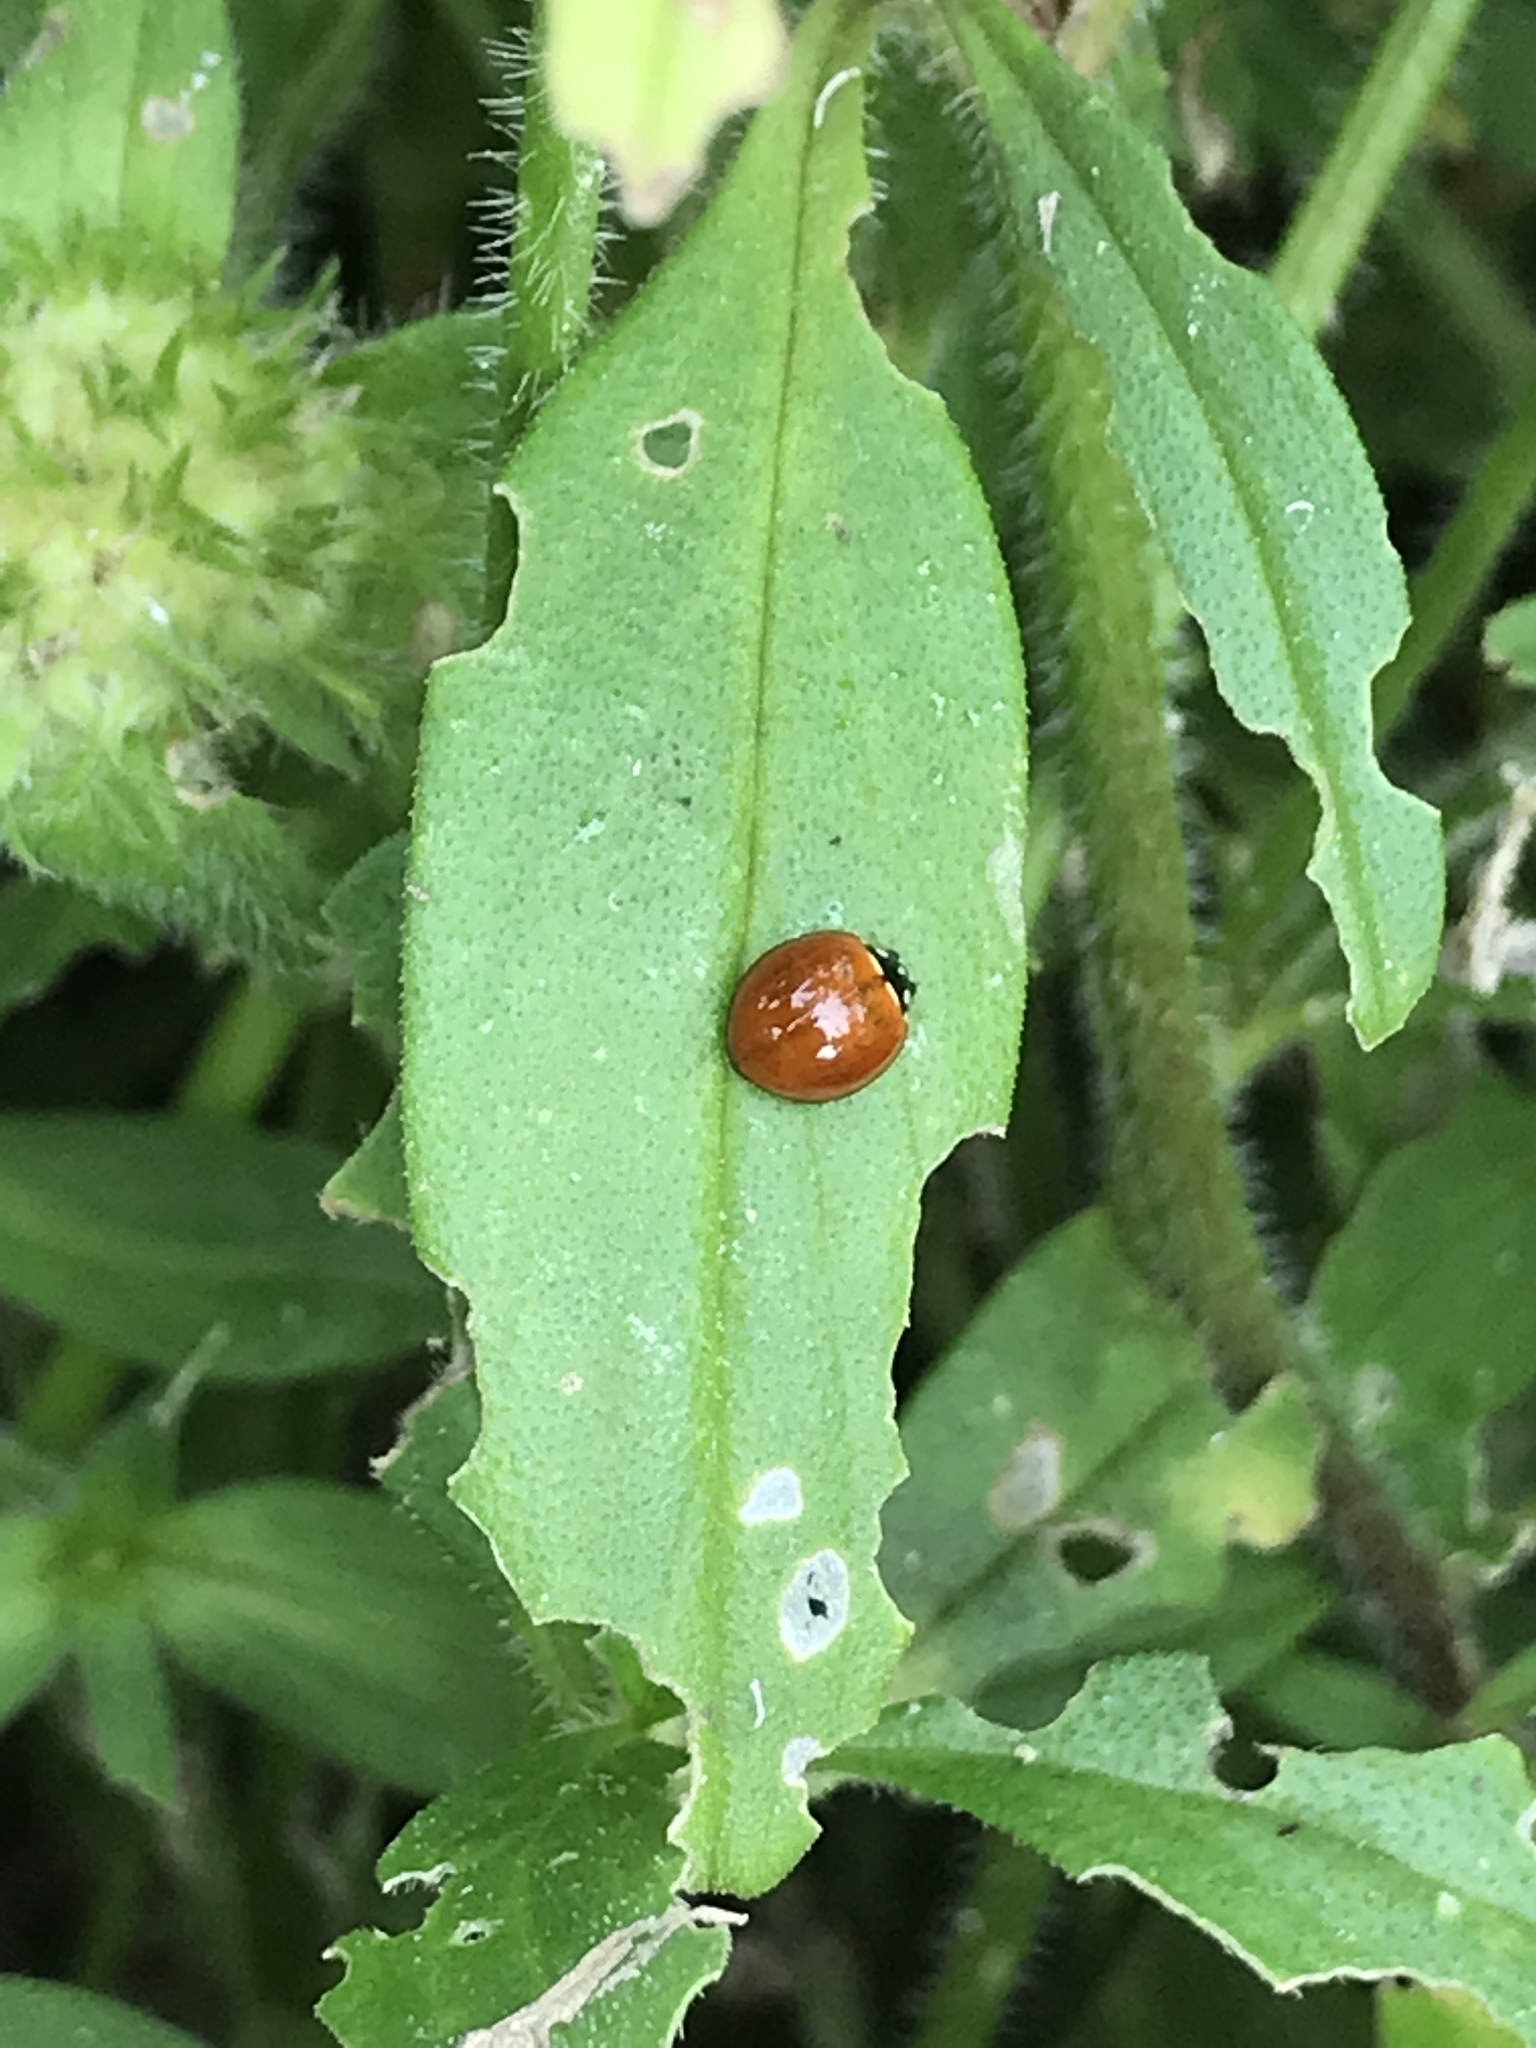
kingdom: Animalia
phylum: Arthropoda
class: Insecta
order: Coleoptera
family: Coccinellidae
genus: Cycloneda
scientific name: Cycloneda sanguinea
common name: Ladybird beetle
